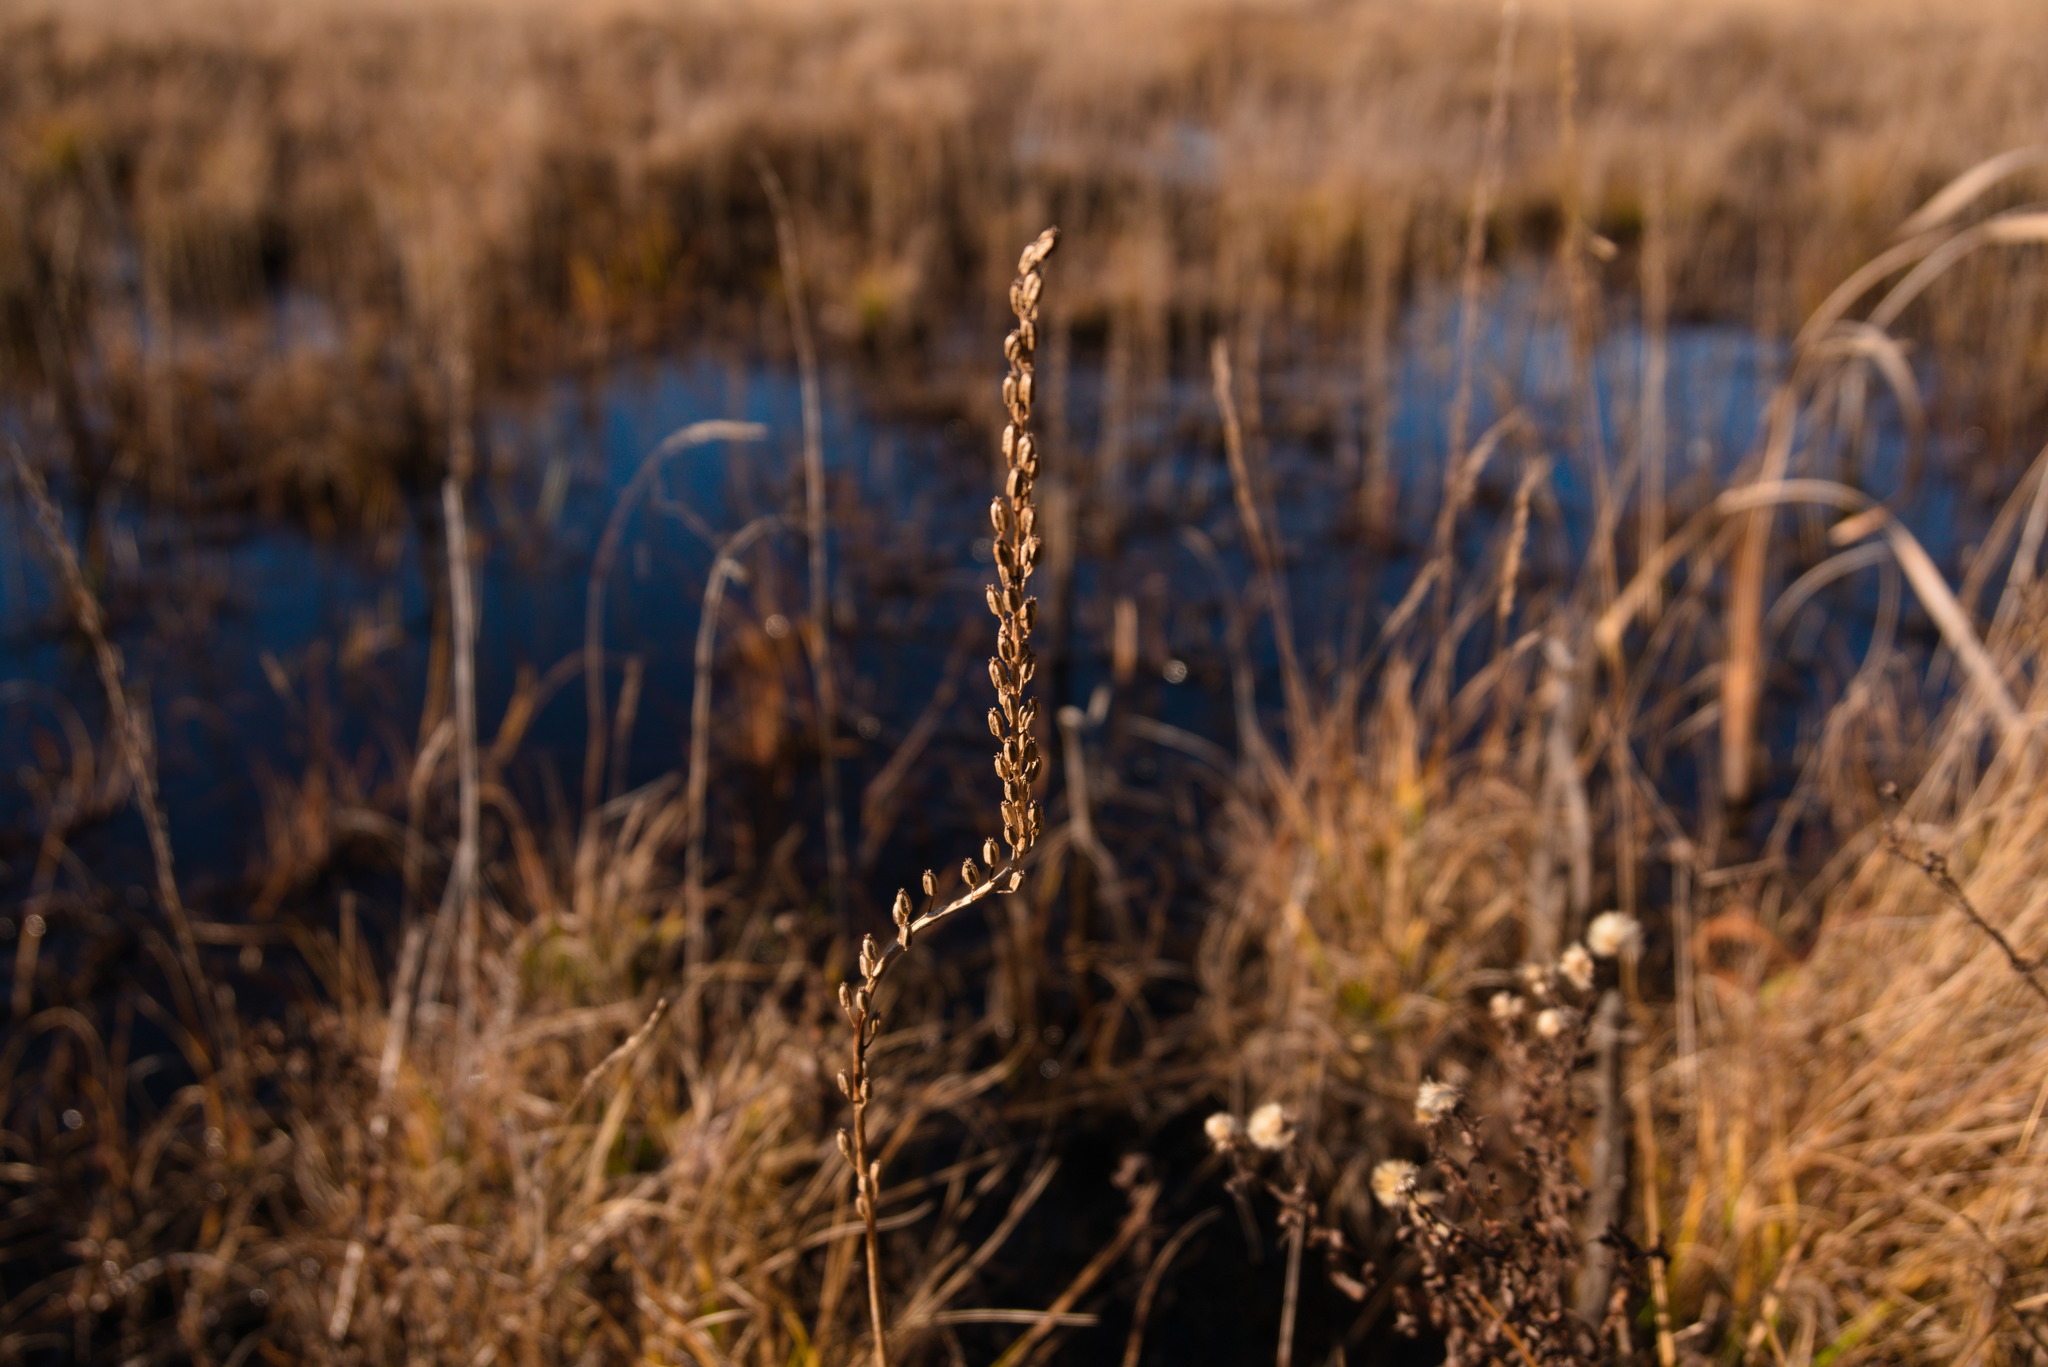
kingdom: Plantae
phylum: Tracheophyta
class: Liliopsida
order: Alismatales
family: Juncaginaceae
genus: Triglochin
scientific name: Triglochin maritima
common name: Sea arrowgrass
